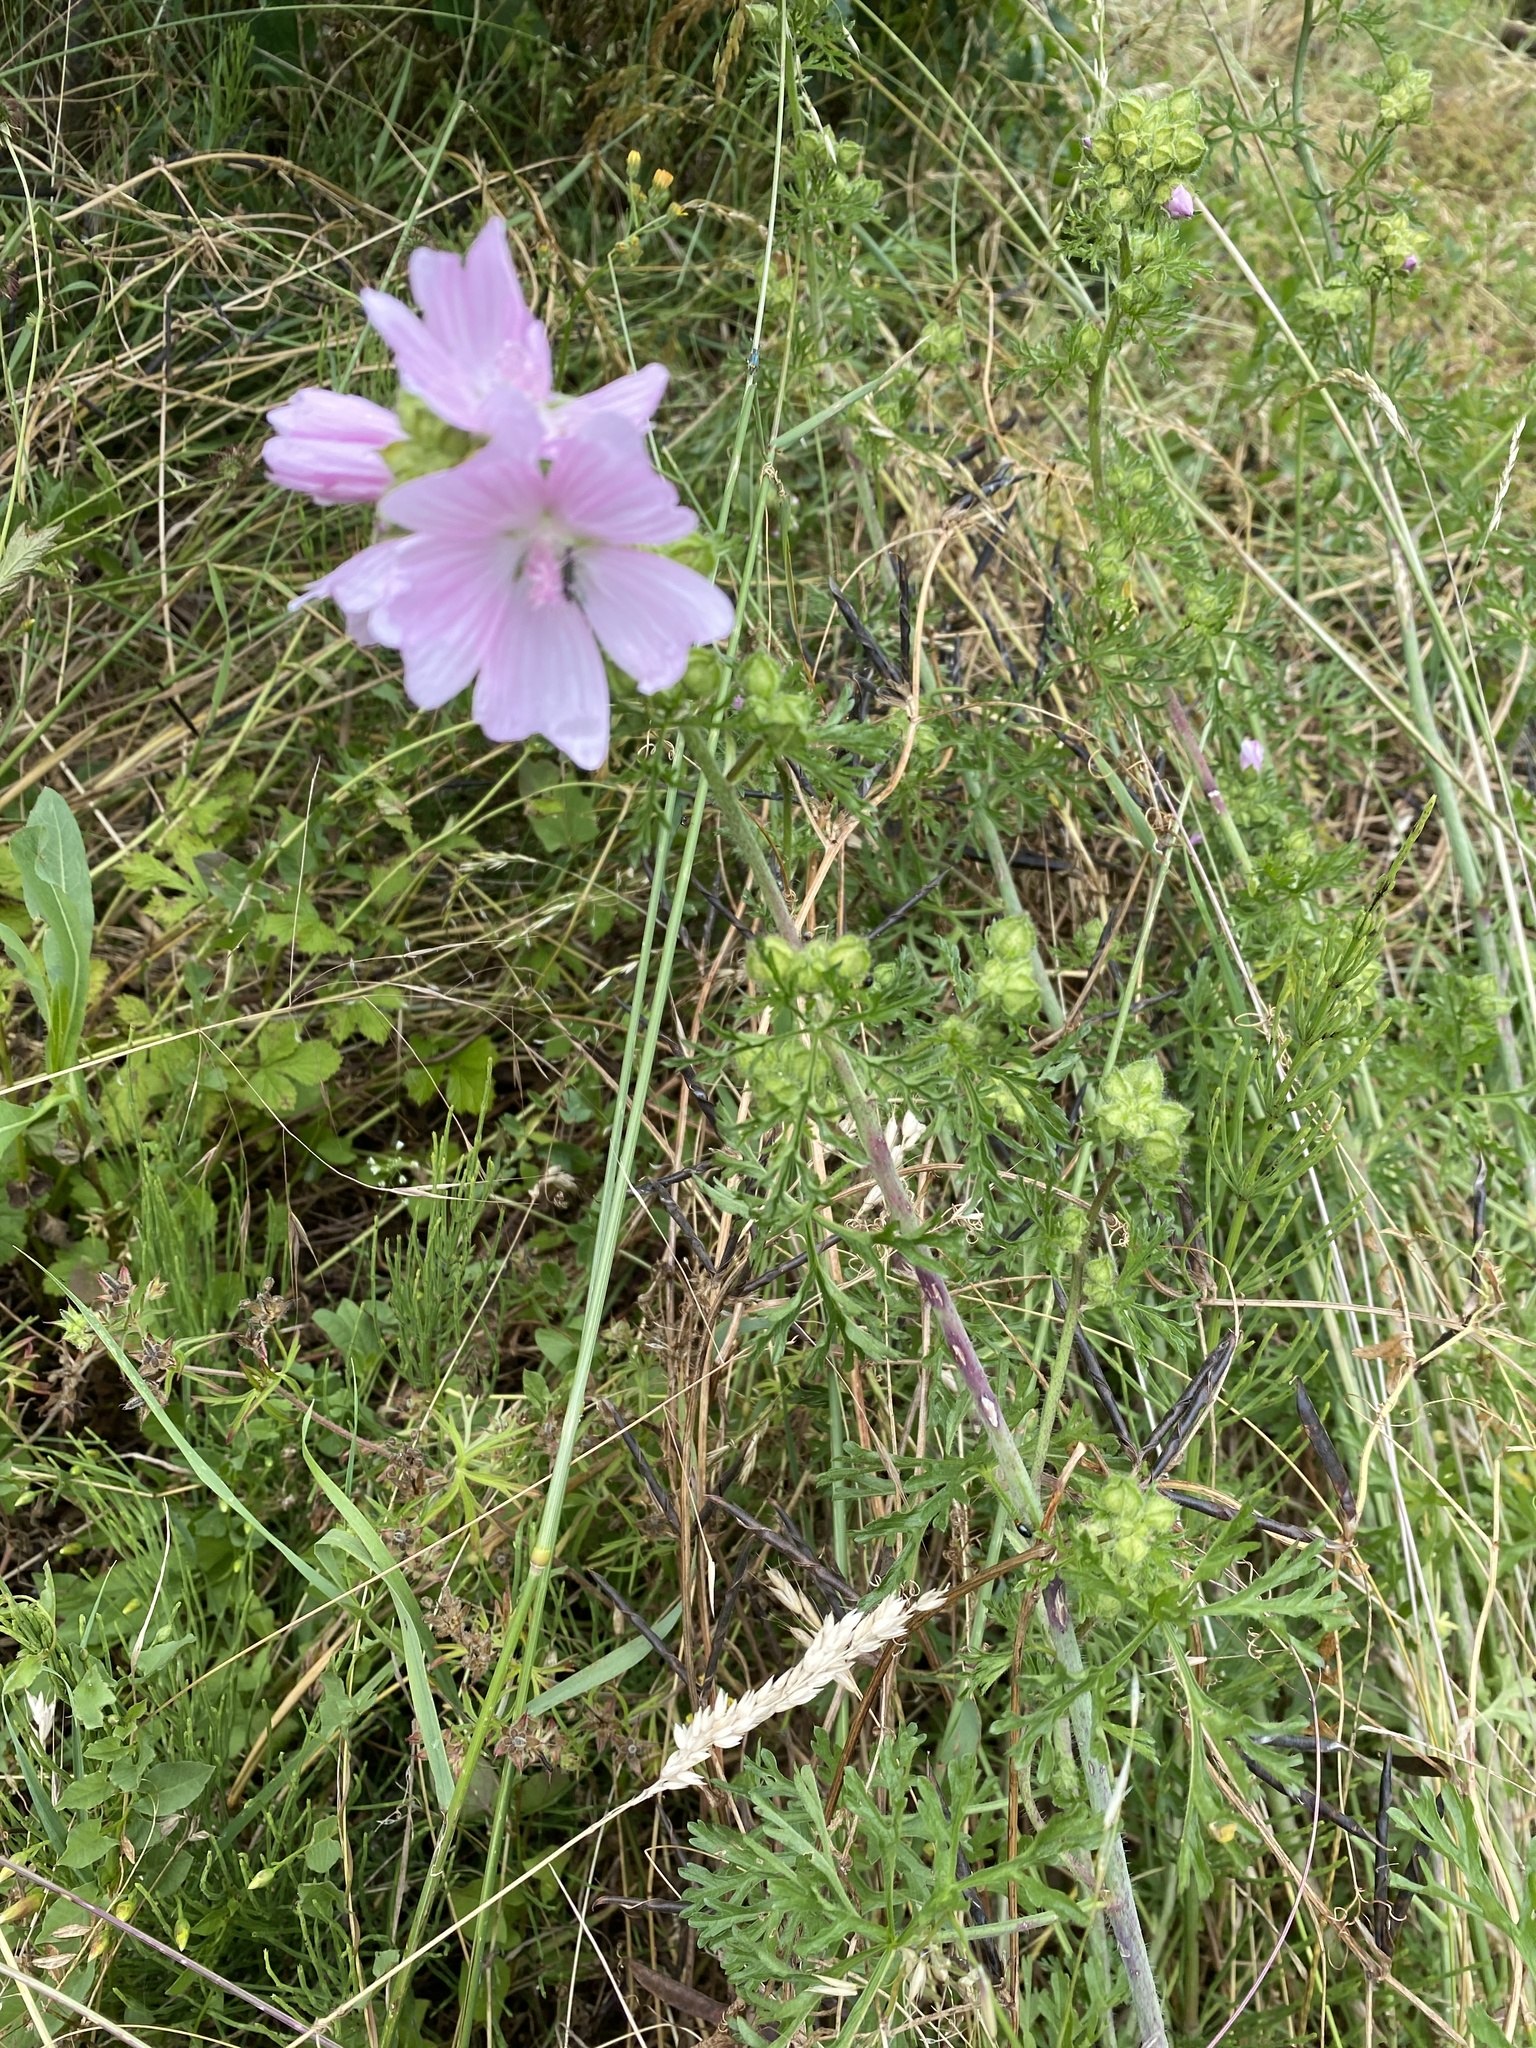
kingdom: Plantae
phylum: Tracheophyta
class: Magnoliopsida
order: Malvales
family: Malvaceae
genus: Malva
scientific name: Malva moschata
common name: Musk mallow
